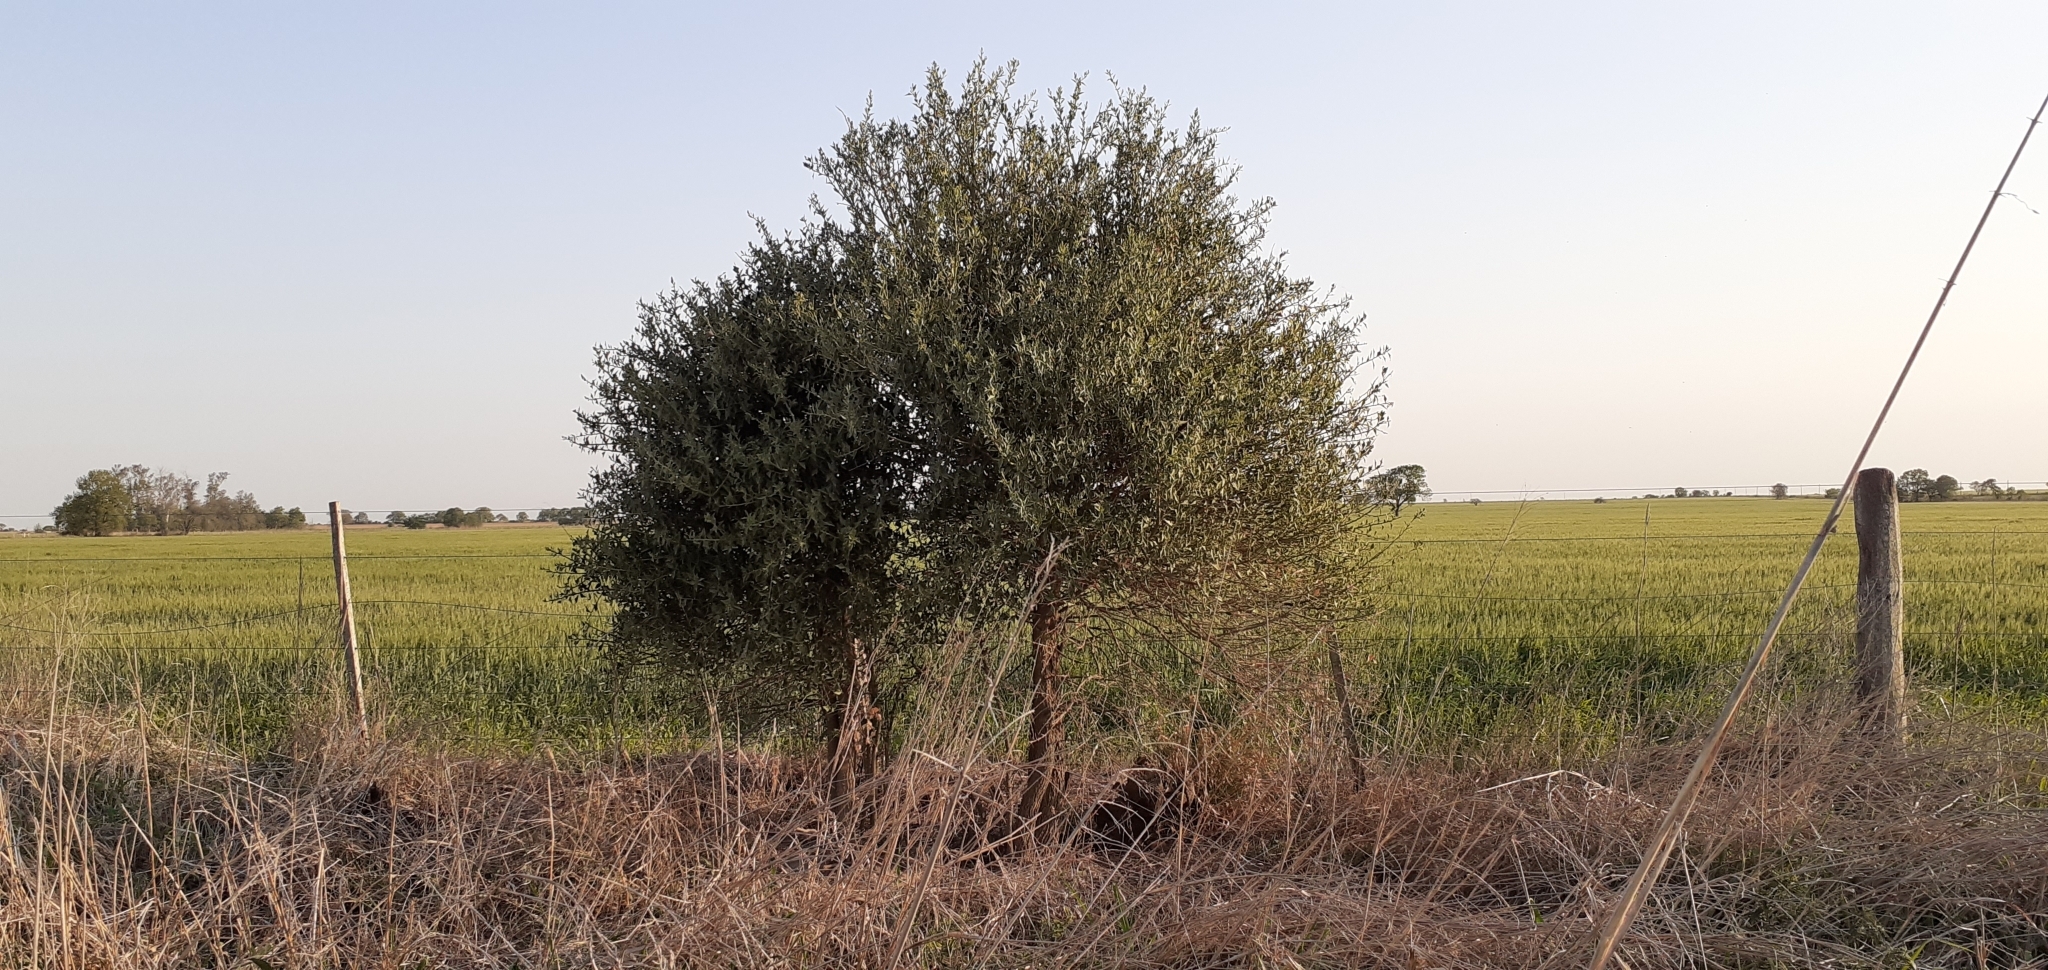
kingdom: Plantae
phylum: Tracheophyta
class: Magnoliopsida
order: Santalales
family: Cervantesiaceae
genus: Jodina
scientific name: Jodina rhombifolia
